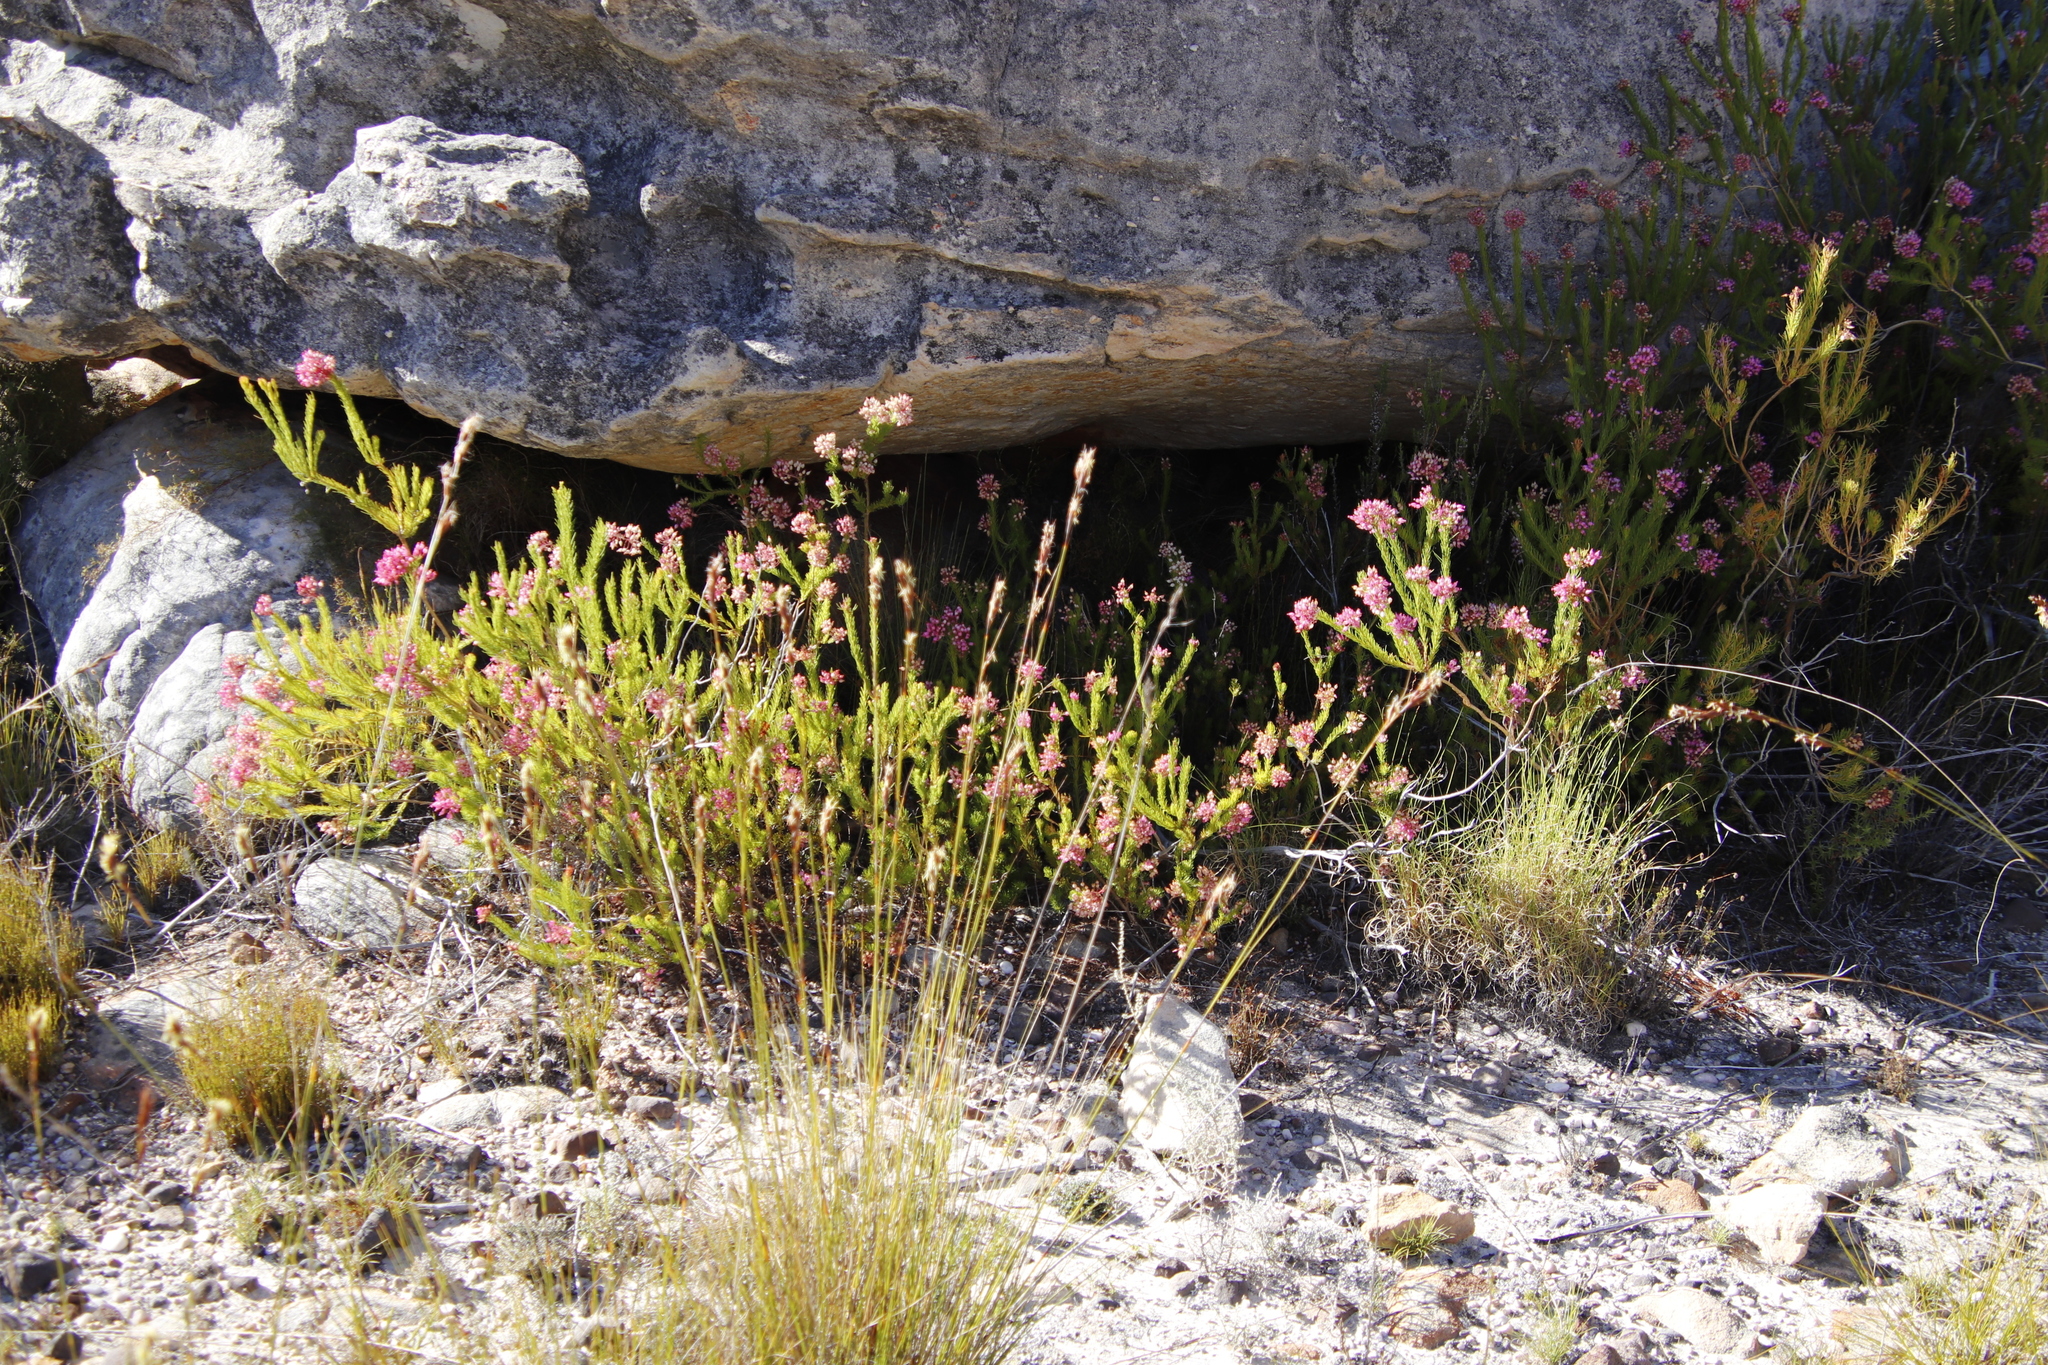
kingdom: Plantae
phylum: Tracheophyta
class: Magnoliopsida
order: Ericales
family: Ericaceae
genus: Erica
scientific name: Erica inflata
